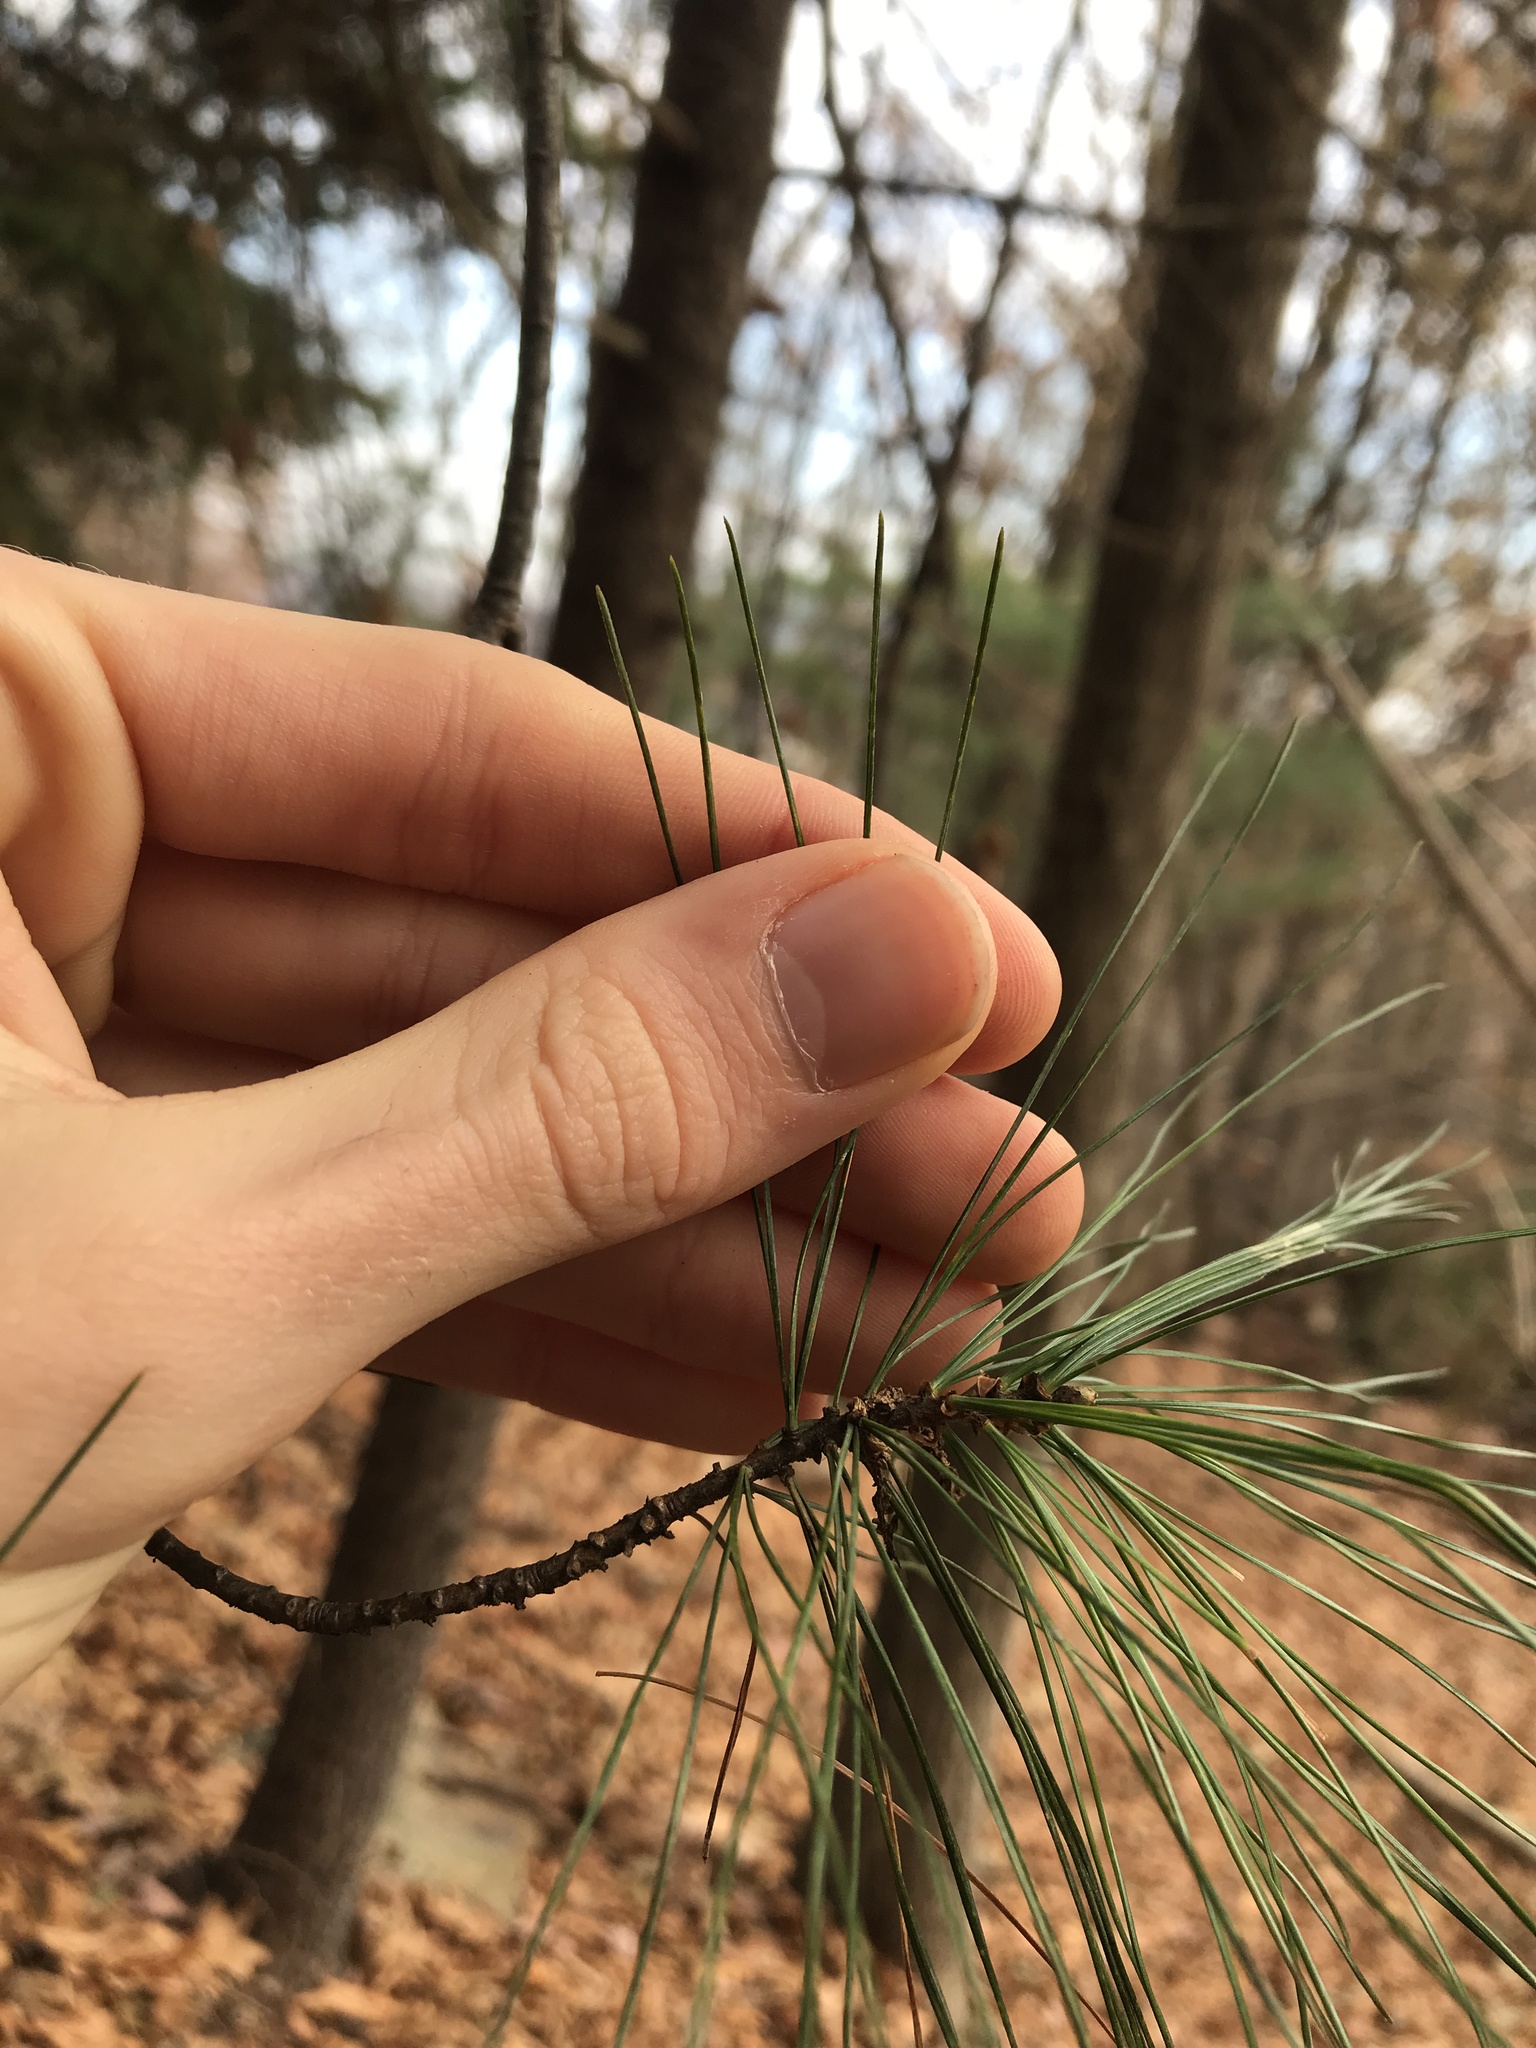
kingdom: Plantae
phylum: Tracheophyta
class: Pinopsida
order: Pinales
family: Pinaceae
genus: Pinus
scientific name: Pinus strobus
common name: Weymouth pine
